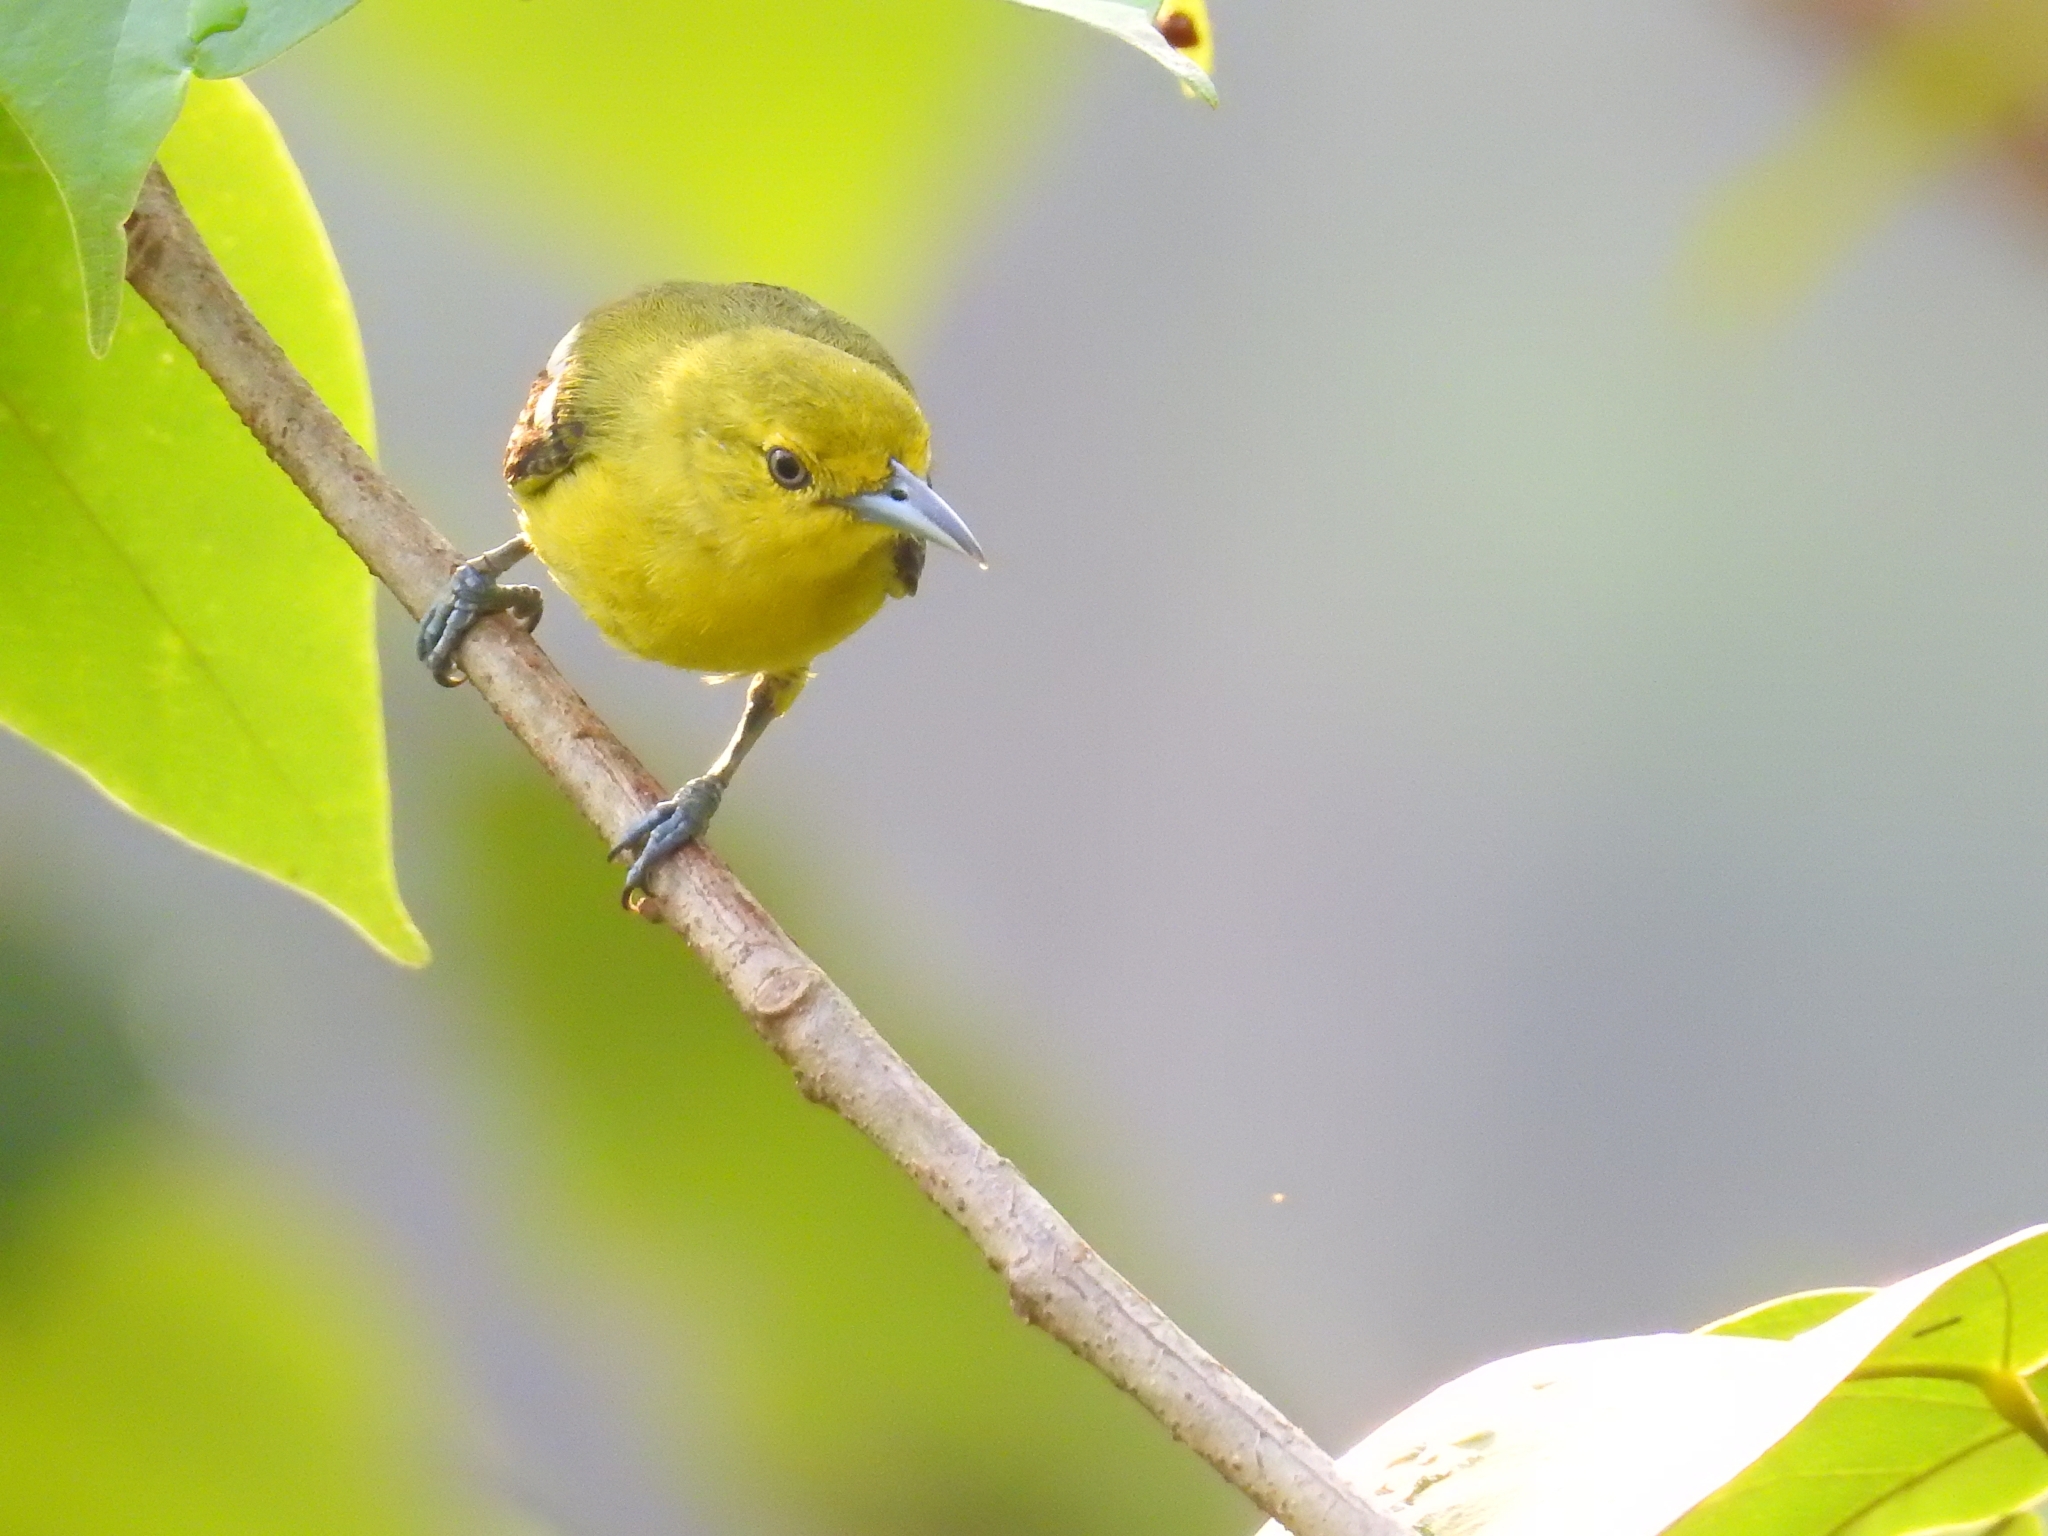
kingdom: Animalia
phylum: Chordata
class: Aves
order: Passeriformes
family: Aegithinidae
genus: Aegithina
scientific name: Aegithina tiphia
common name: Common iora
